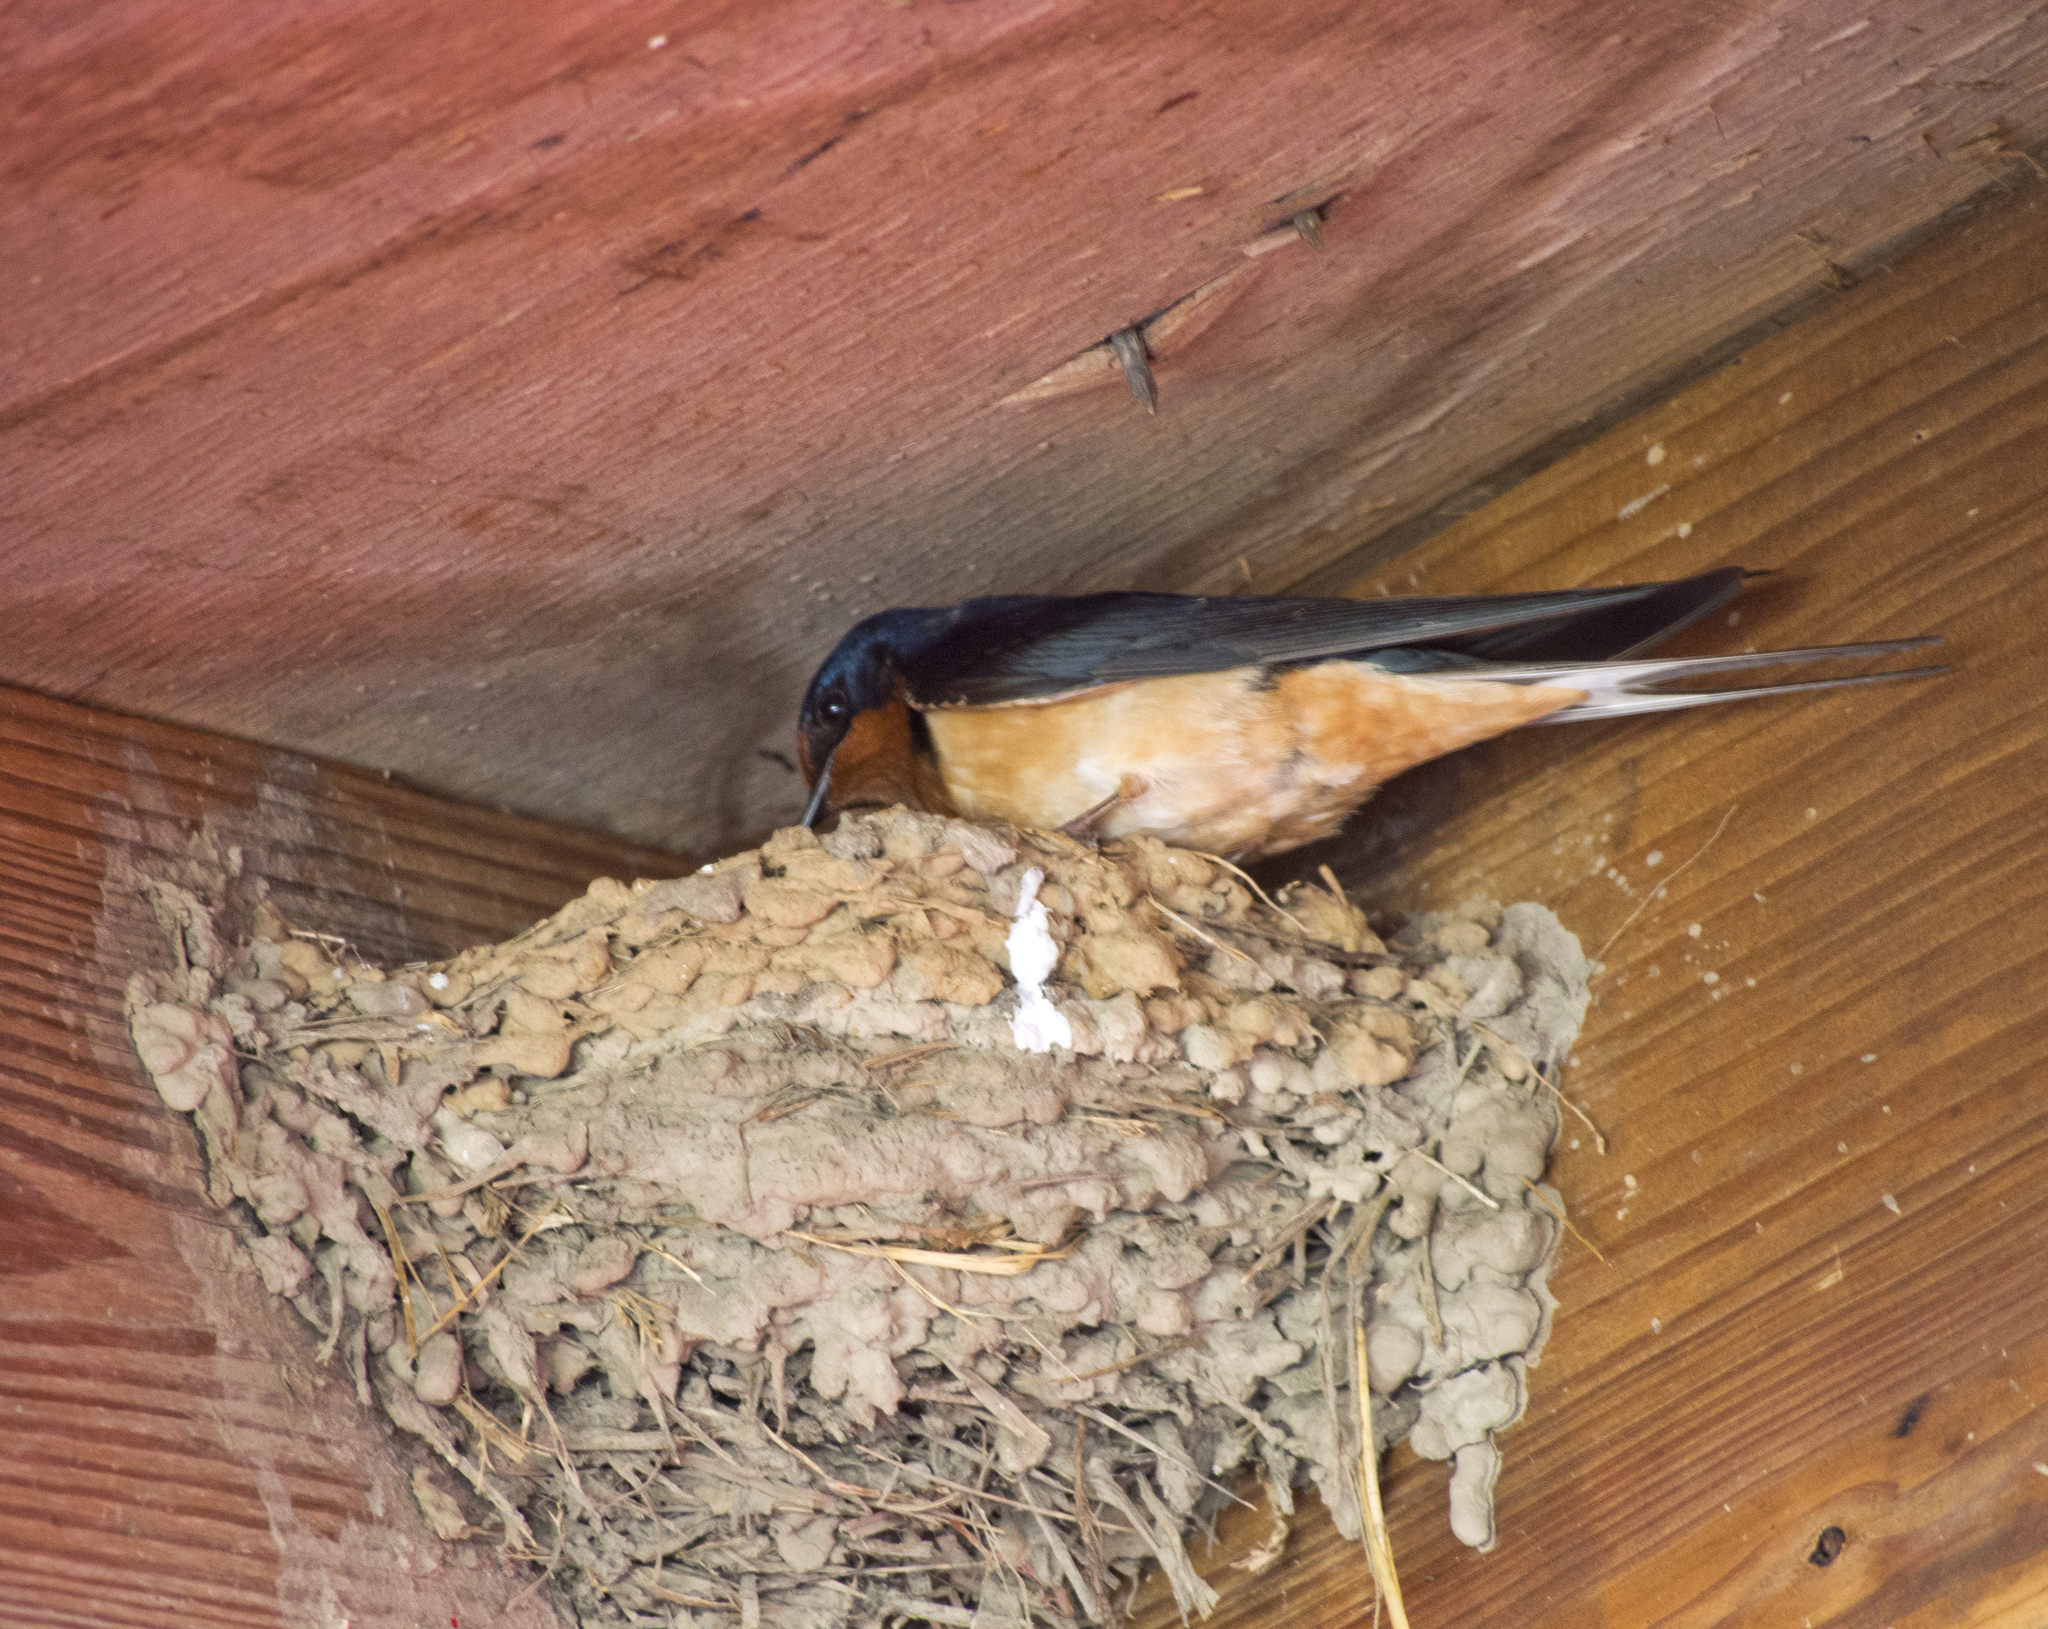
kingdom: Animalia
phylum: Chordata
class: Aves
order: Passeriformes
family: Hirundinidae
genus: Hirundo
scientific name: Hirundo rustica
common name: Barn swallow
